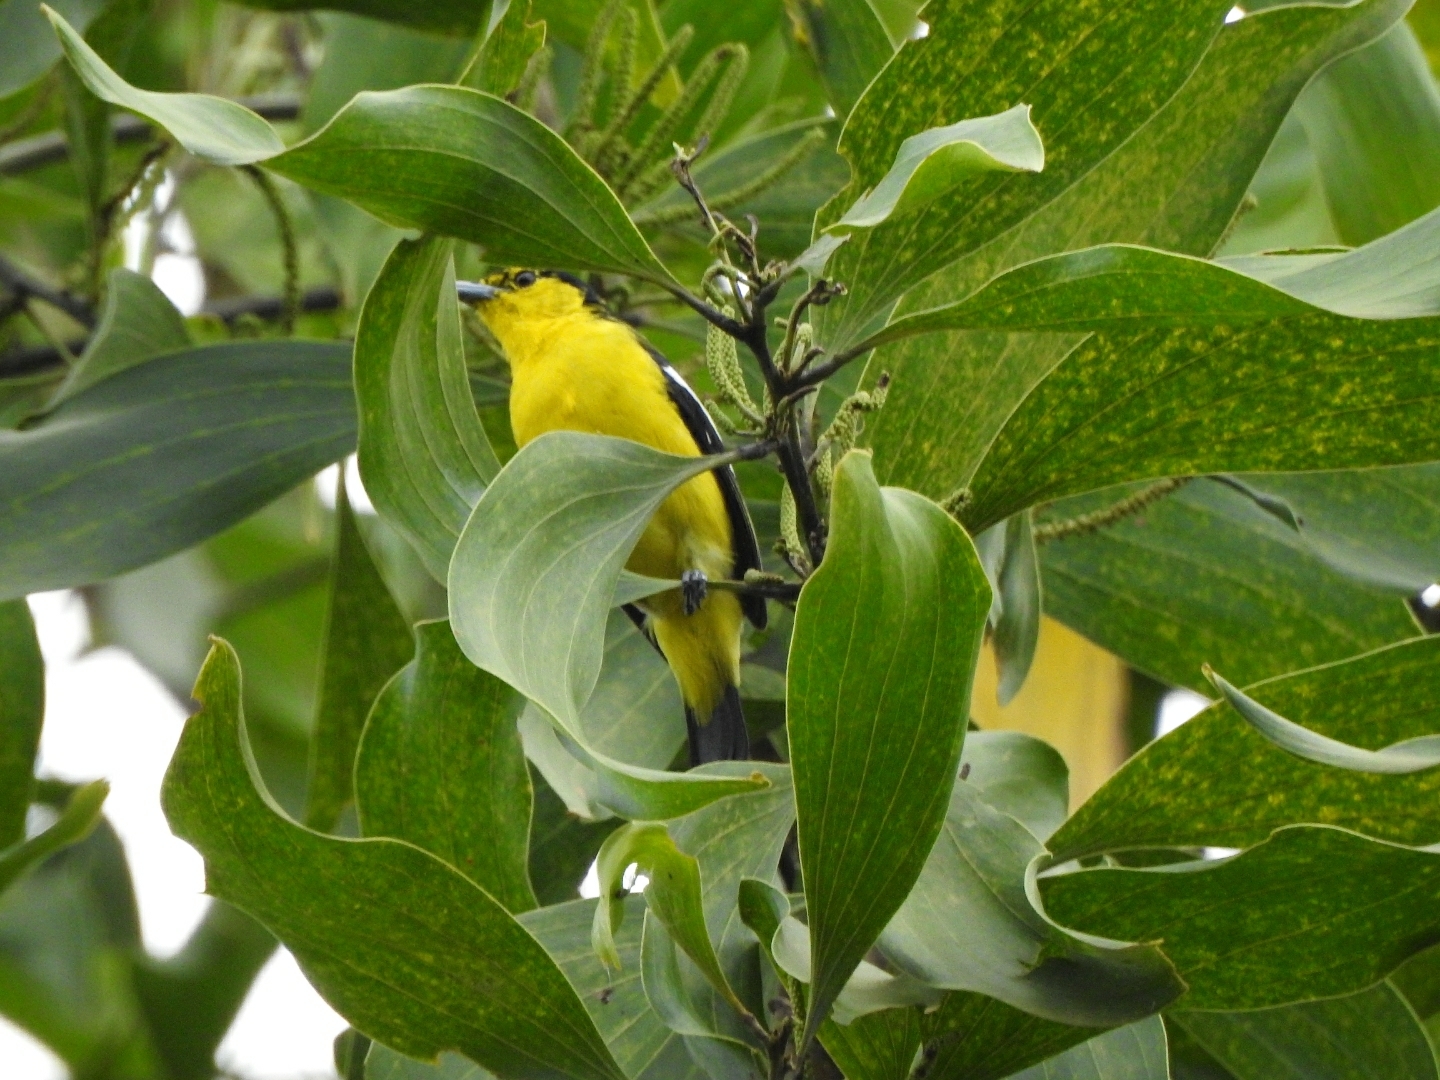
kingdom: Animalia
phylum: Chordata
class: Aves
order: Passeriformes
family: Aegithinidae
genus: Aegithina
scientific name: Aegithina tiphia
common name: Common iora
